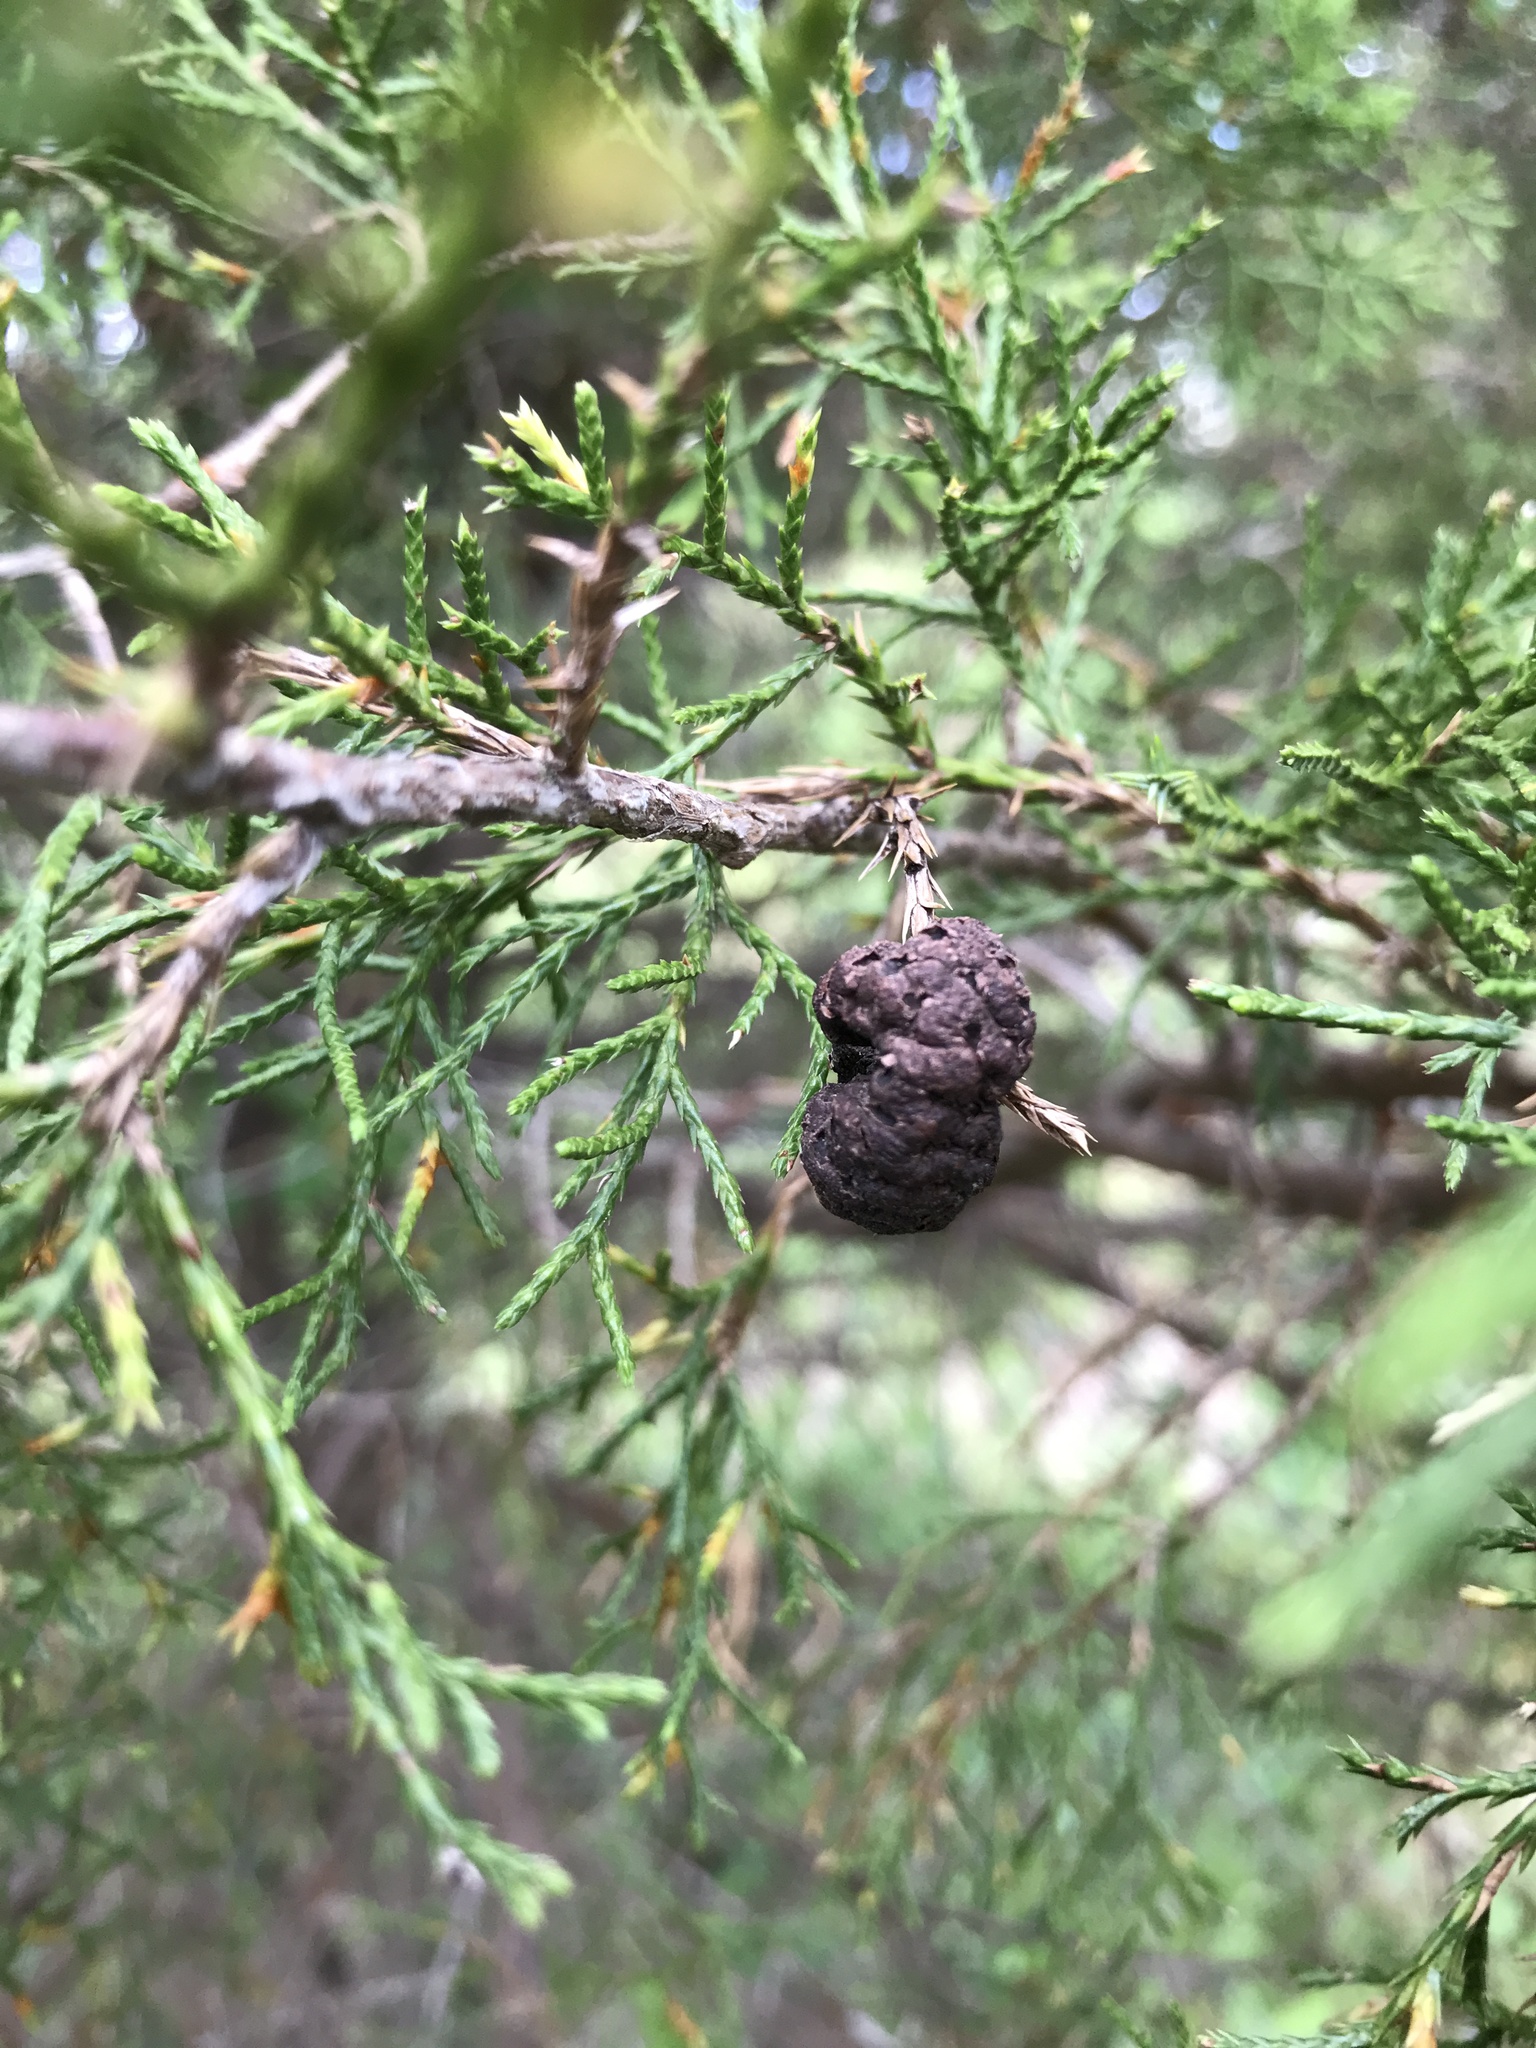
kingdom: Fungi
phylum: Basidiomycota
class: Pucciniomycetes
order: Pucciniales
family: Gymnosporangiaceae
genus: Gymnosporangium
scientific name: Gymnosporangium juniperi-virginianae
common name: Juniper-apple rust
